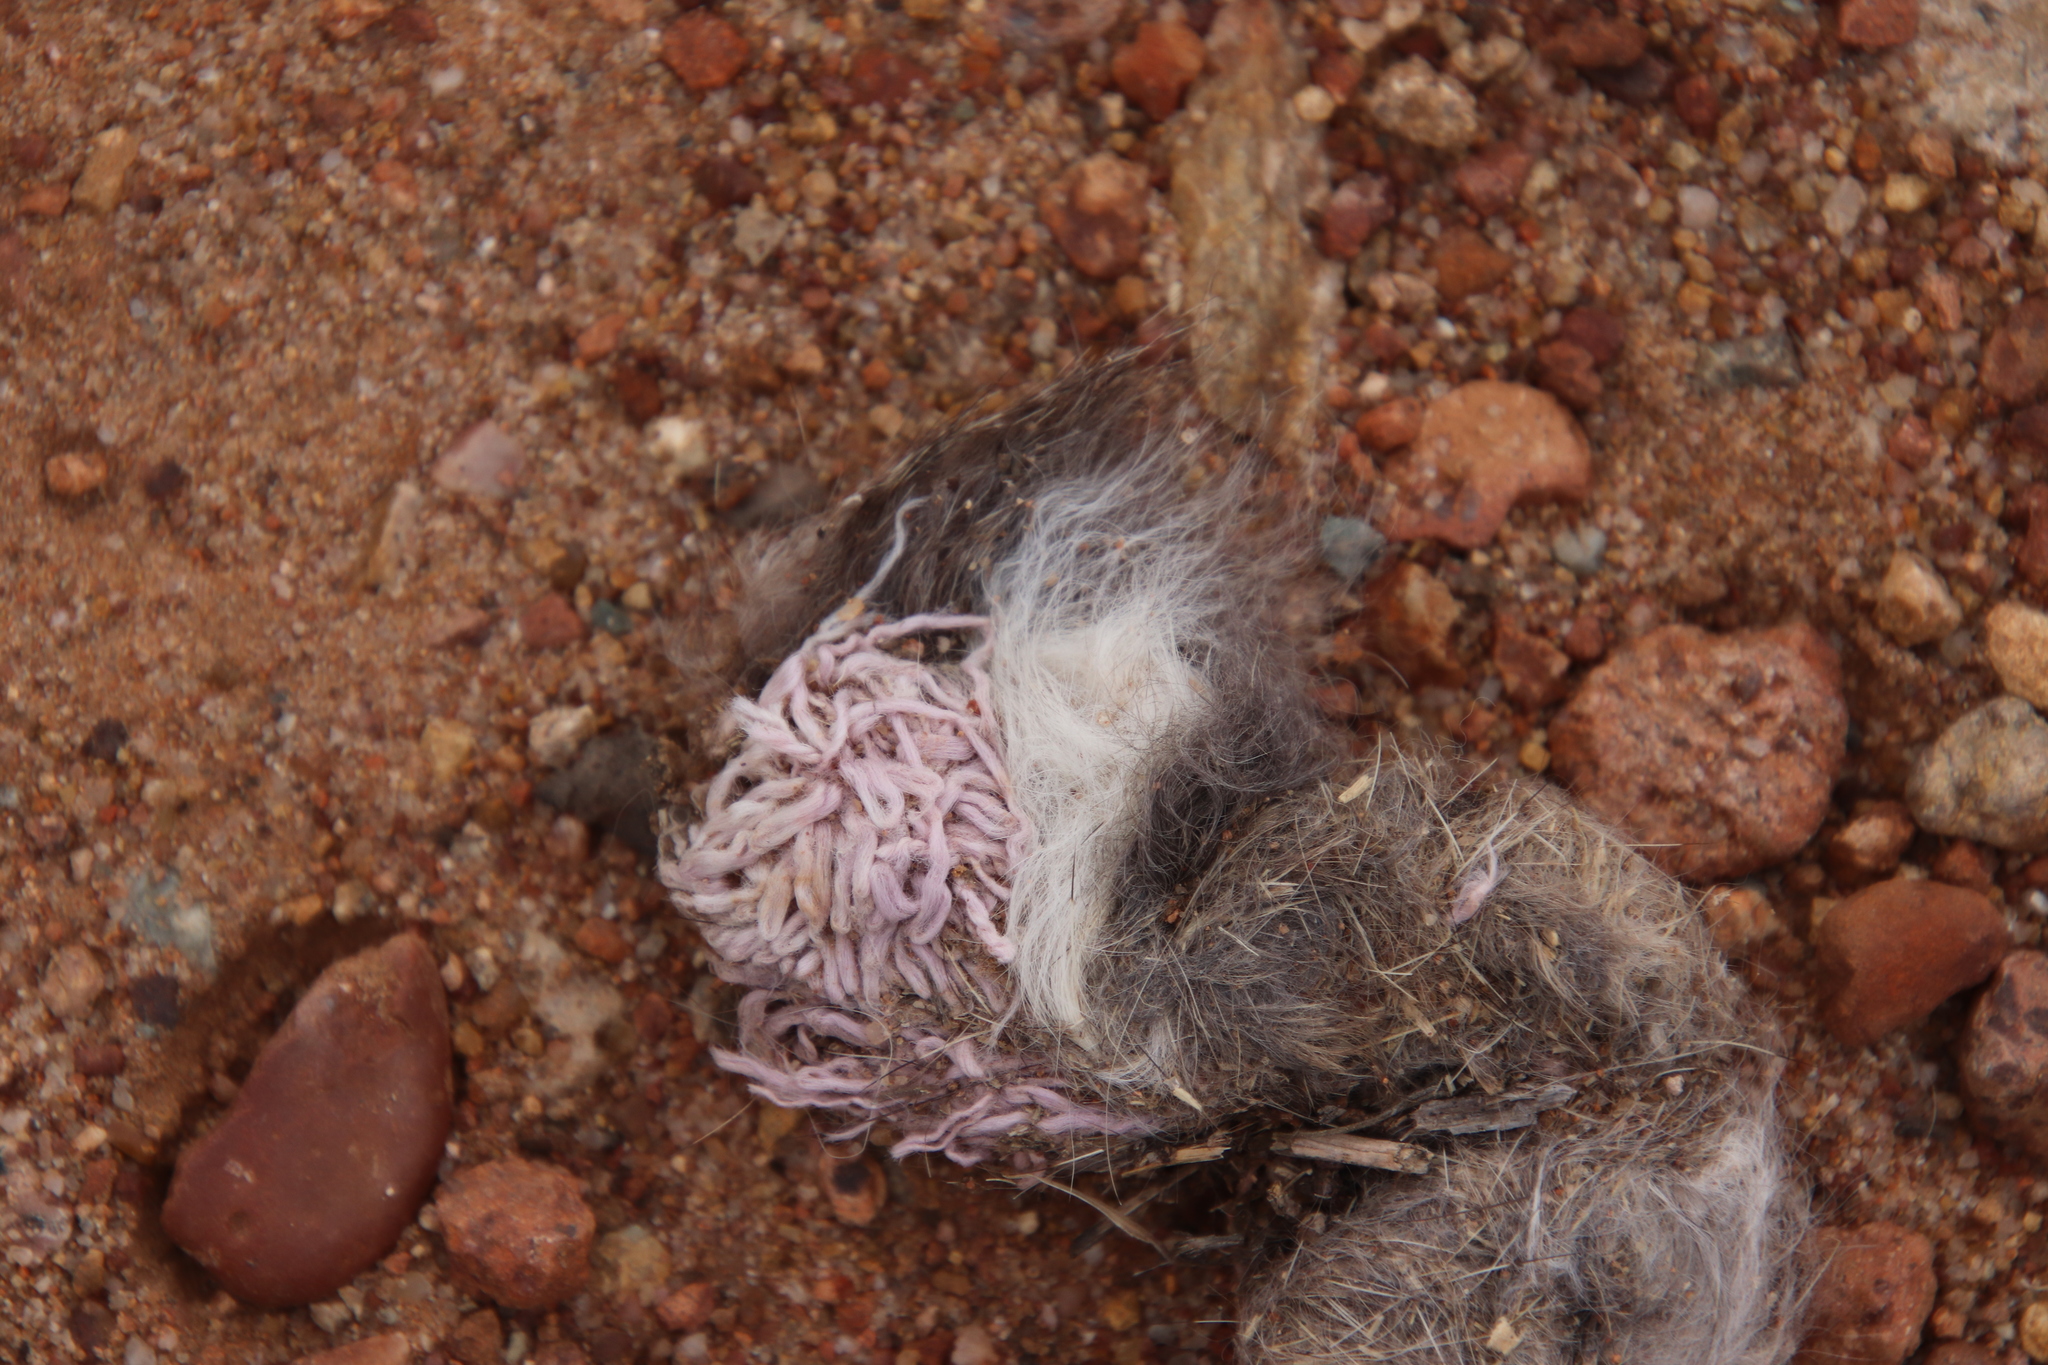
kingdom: Animalia
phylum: Chordata
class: Mammalia
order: Carnivora
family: Canidae
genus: Canis
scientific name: Canis latrans
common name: Coyote
